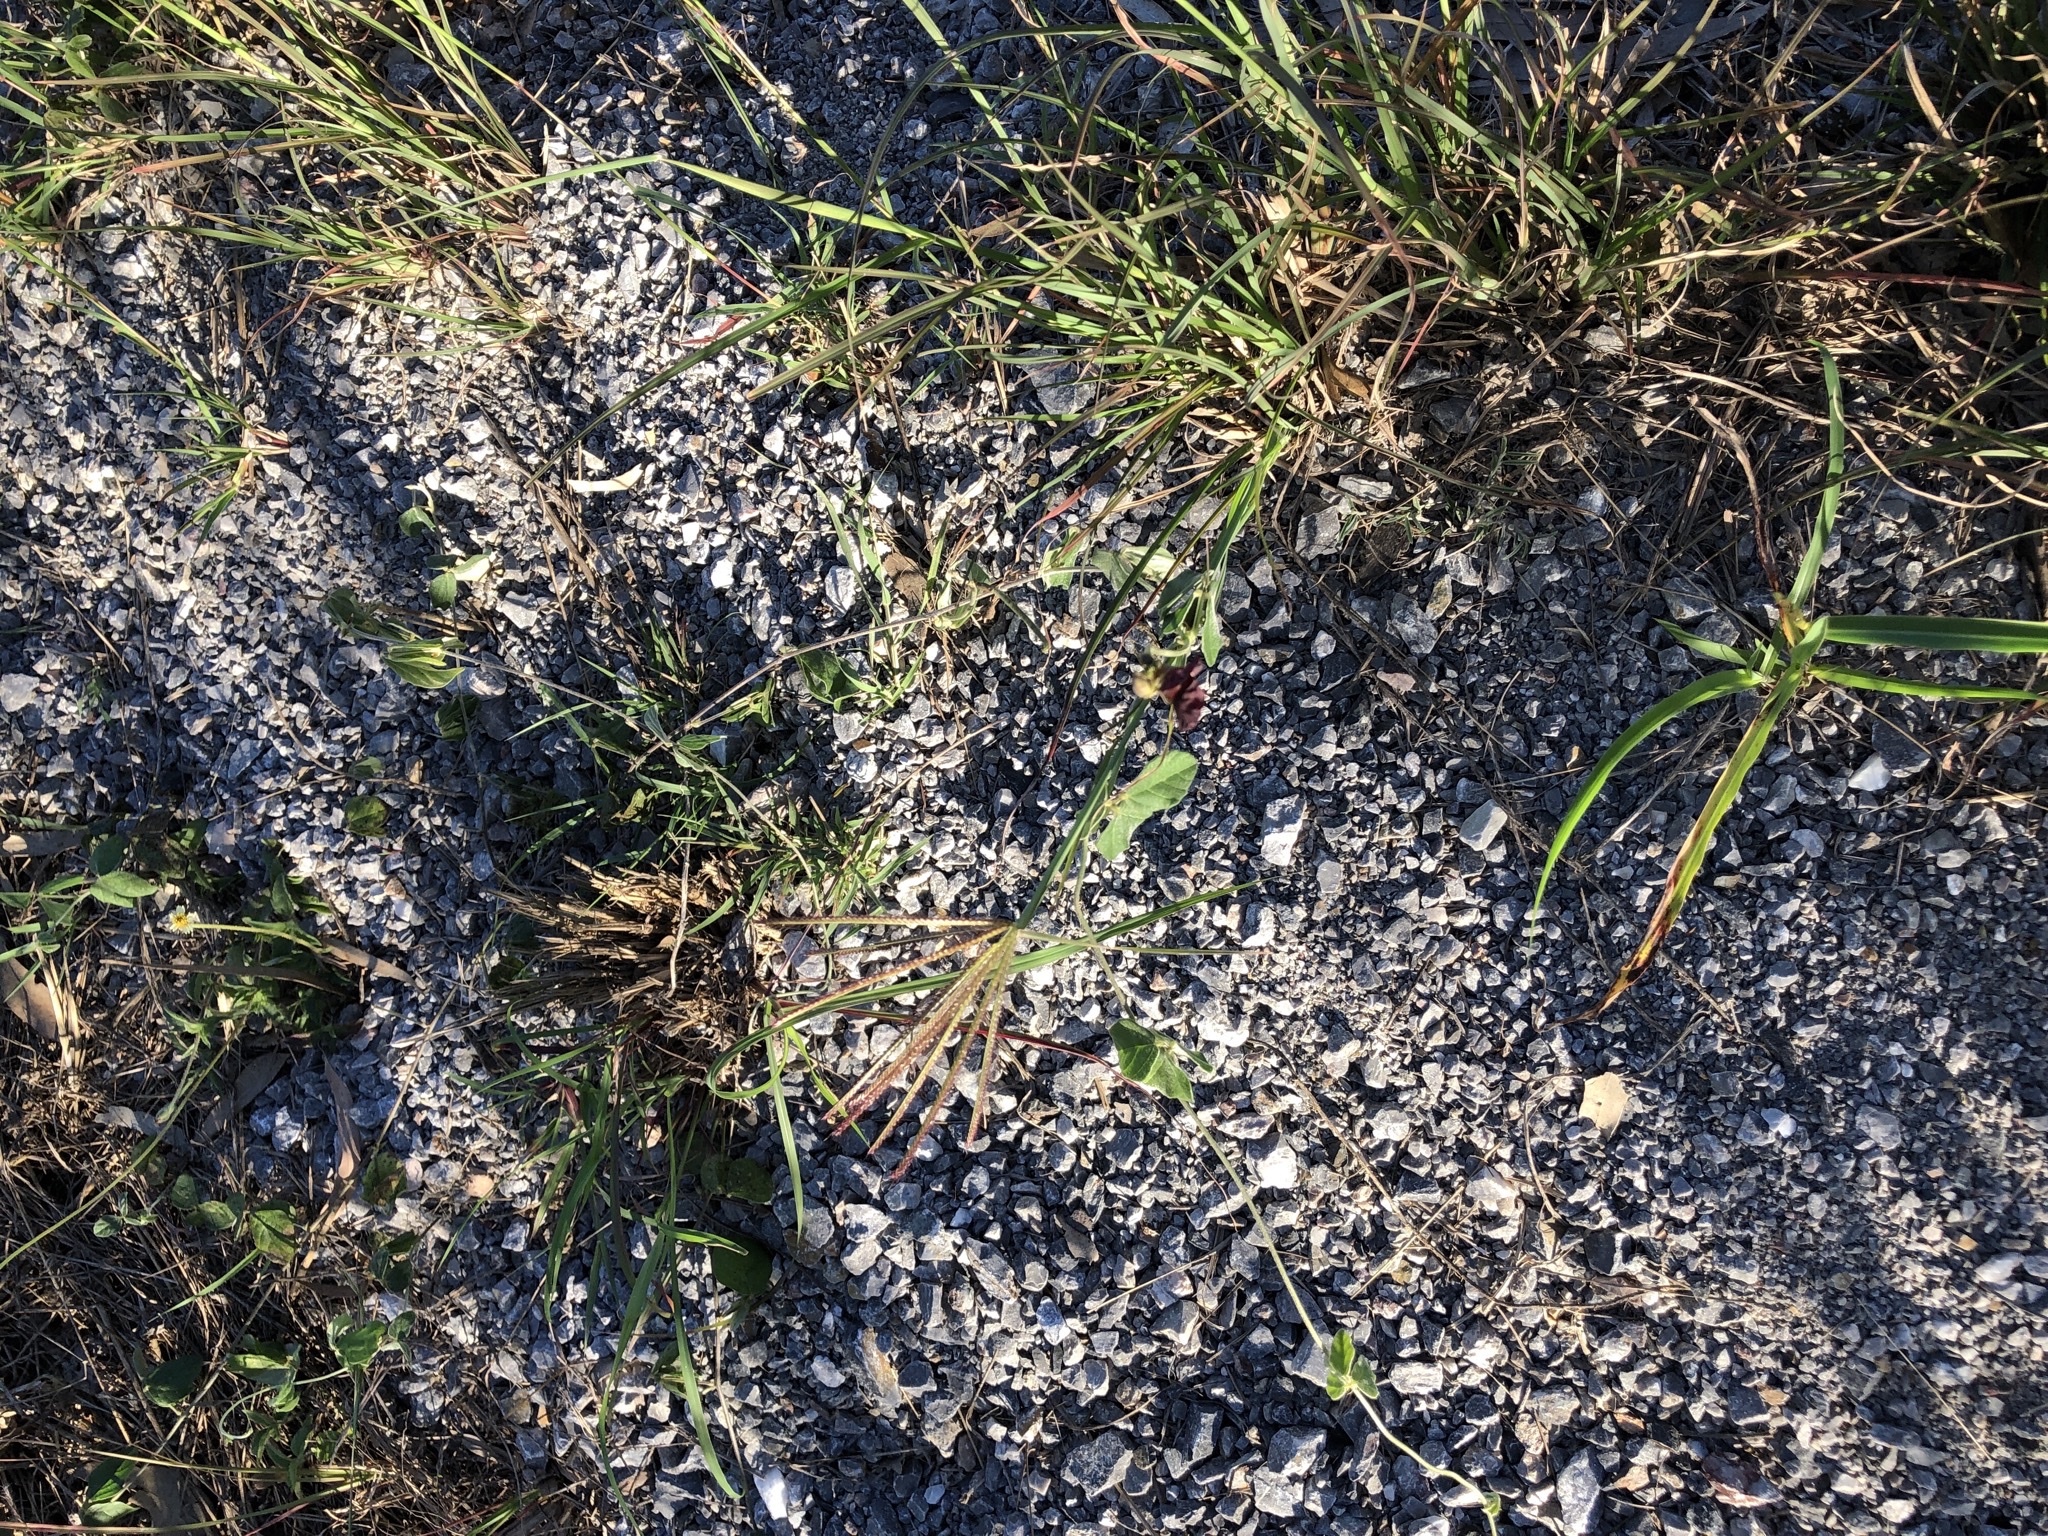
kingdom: Plantae
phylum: Tracheophyta
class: Magnoliopsida
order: Fabales
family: Fabaceae
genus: Macroptilium
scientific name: Macroptilium atropurpureum
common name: Purple bushbean
